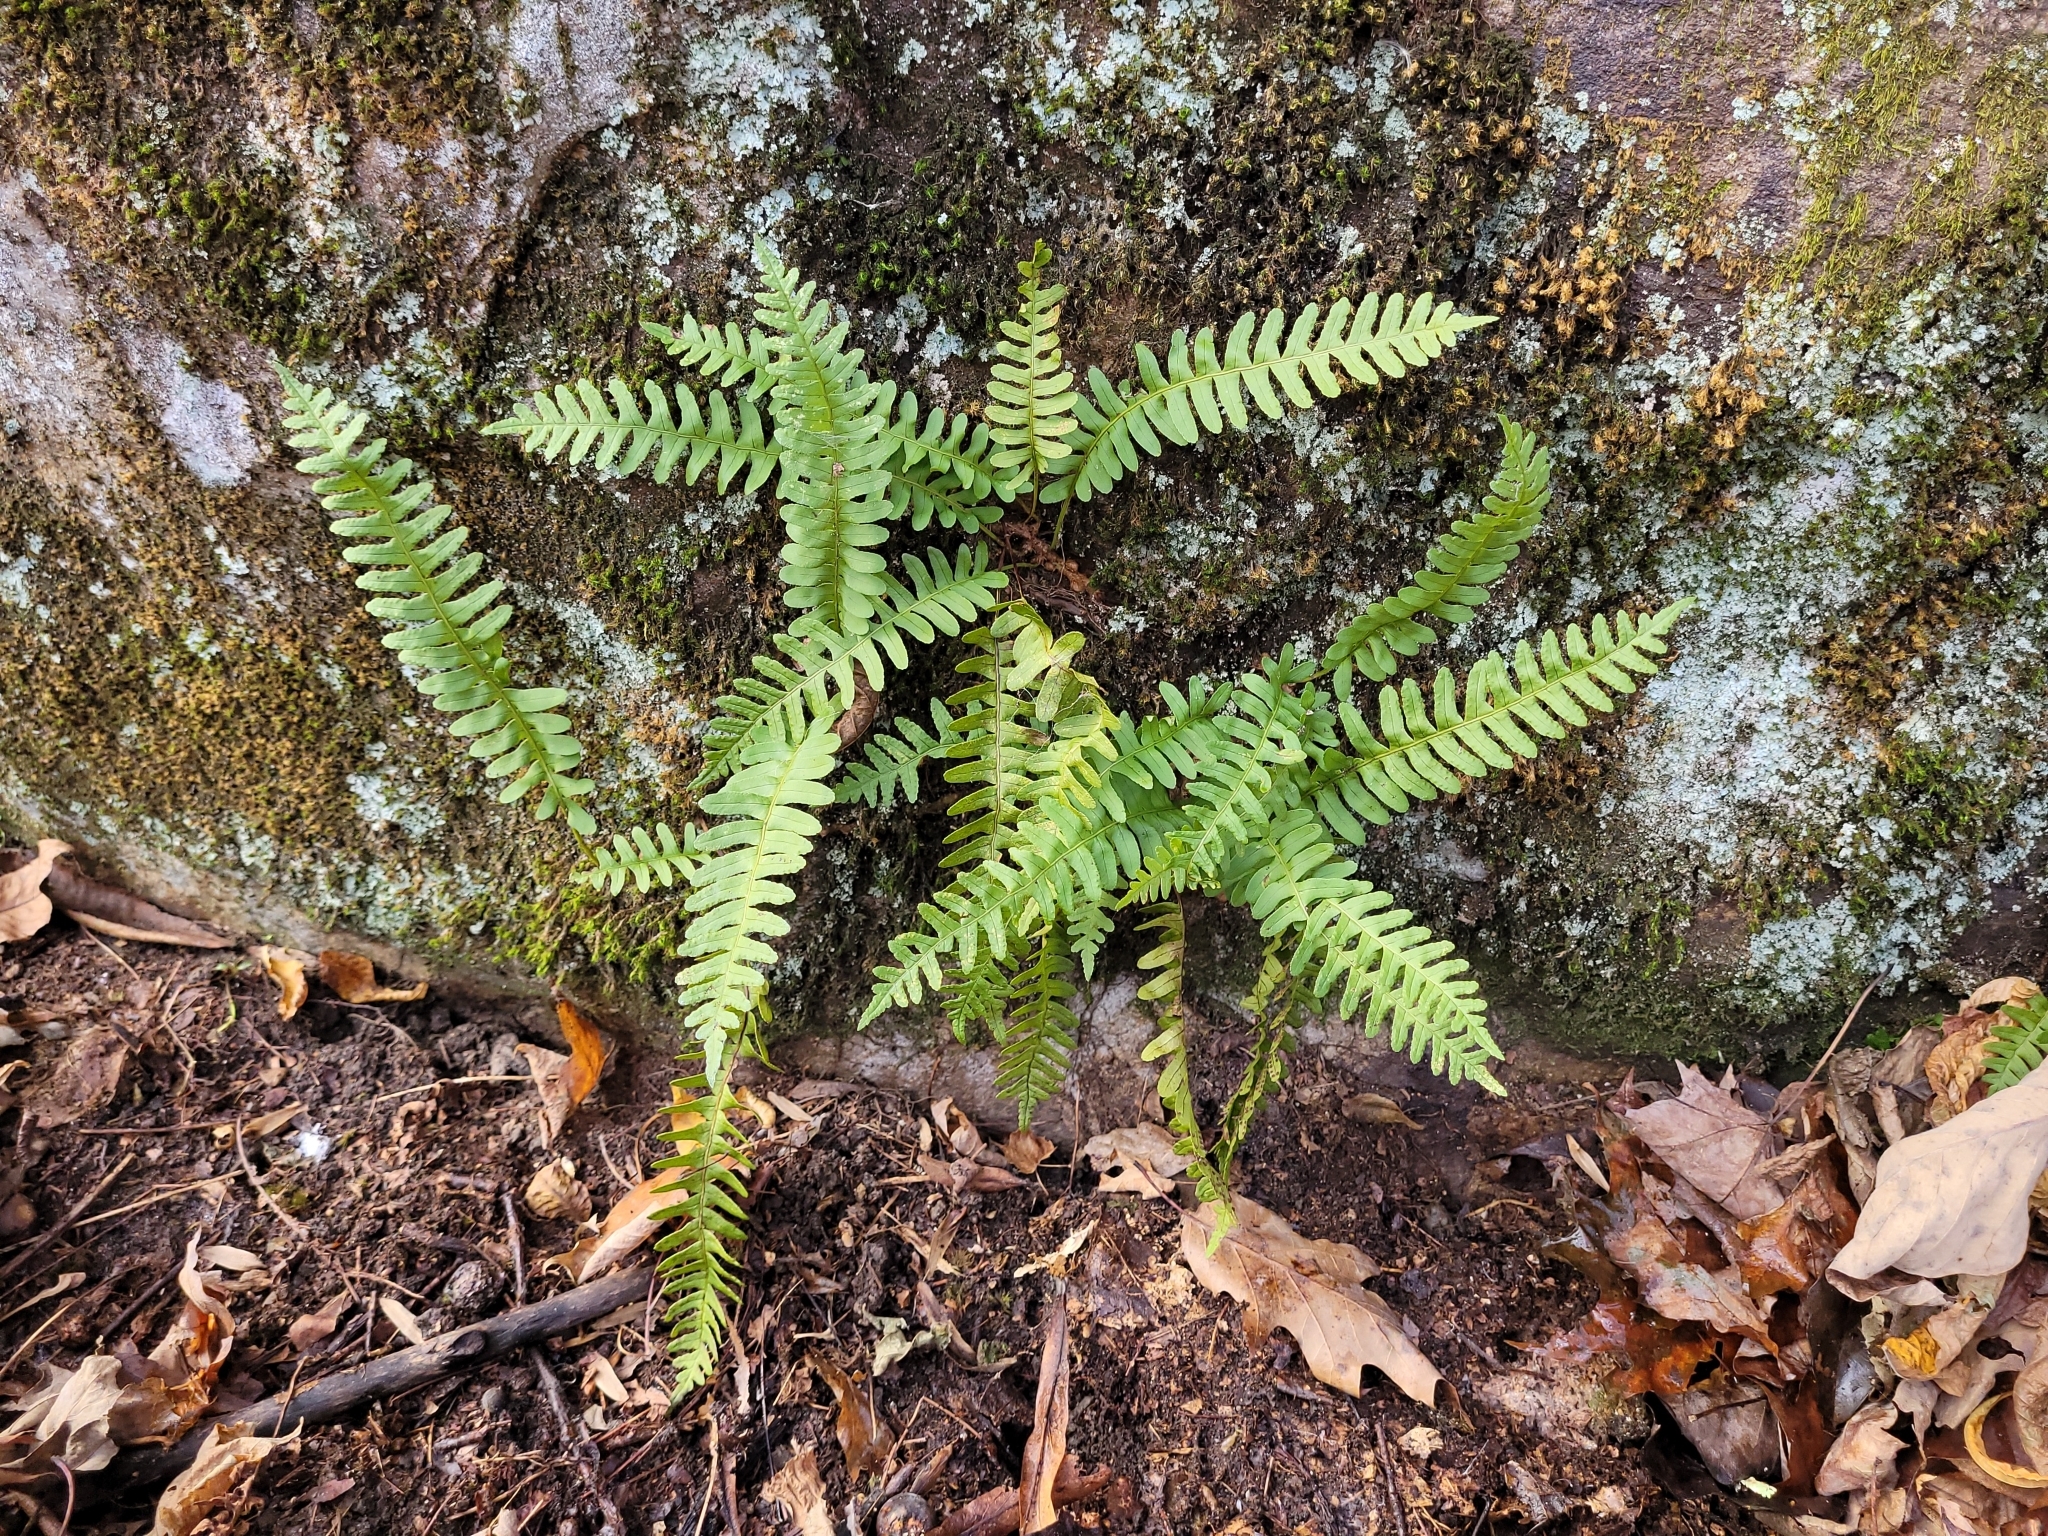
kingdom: Plantae
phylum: Tracheophyta
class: Polypodiopsida
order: Polypodiales
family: Polypodiaceae
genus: Polypodium
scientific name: Polypodium virginianum
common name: American wall fern
